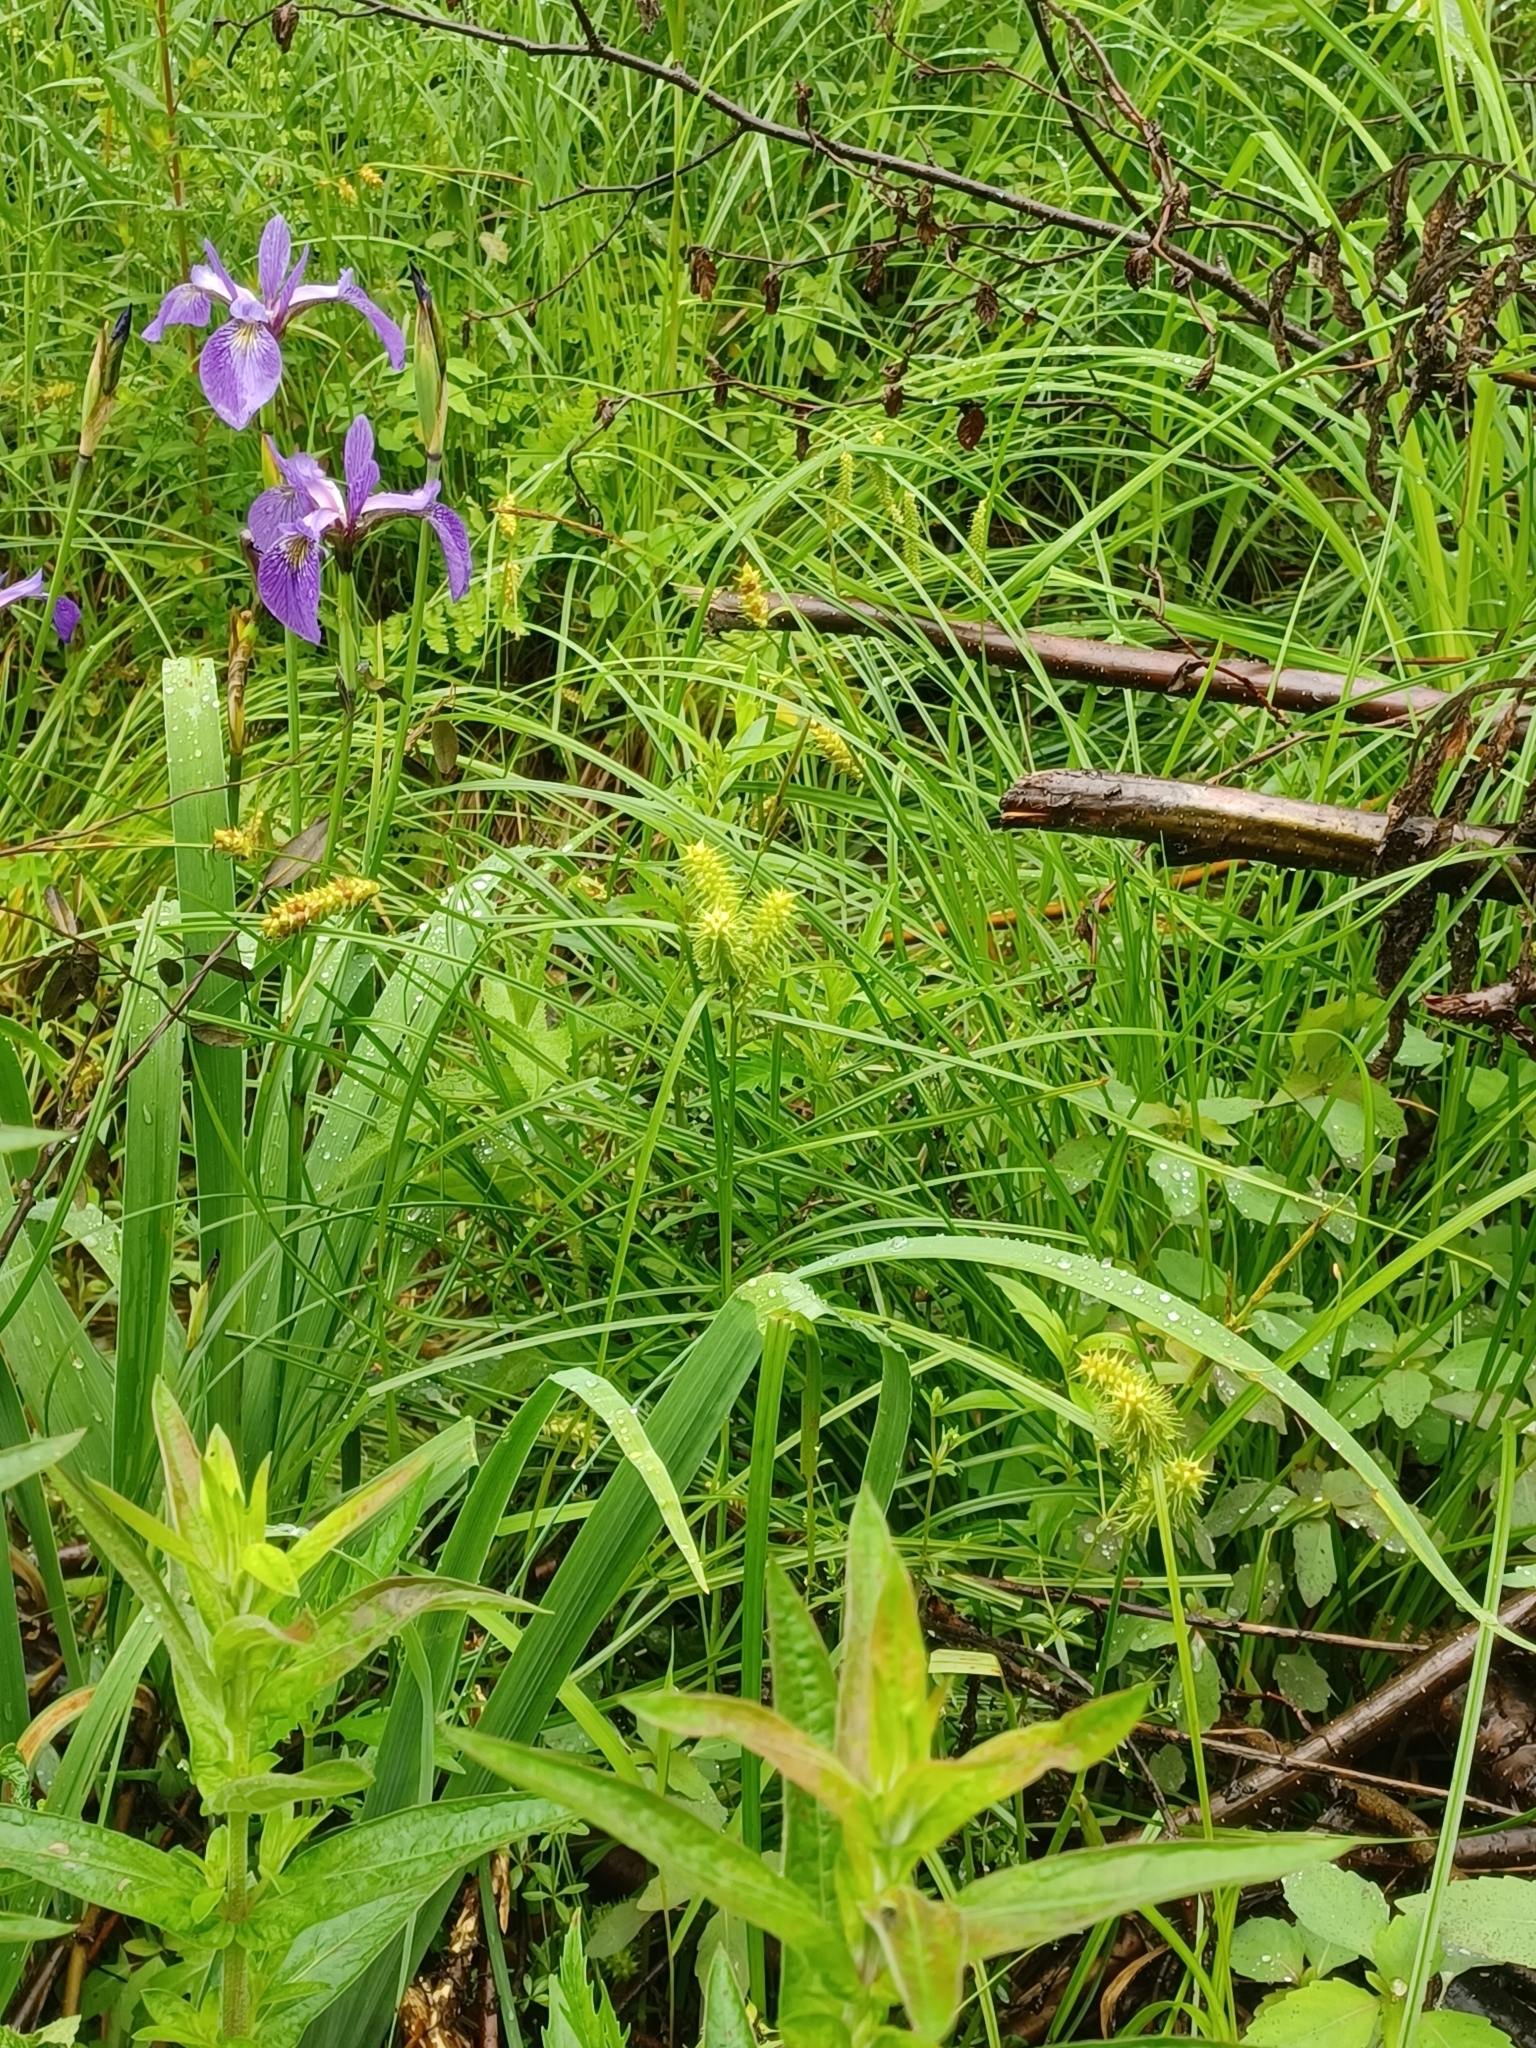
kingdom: Plantae
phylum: Tracheophyta
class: Liliopsida
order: Poales
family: Cyperaceae
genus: Carex
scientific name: Carex retrorsa
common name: Knot-sheath sedge
